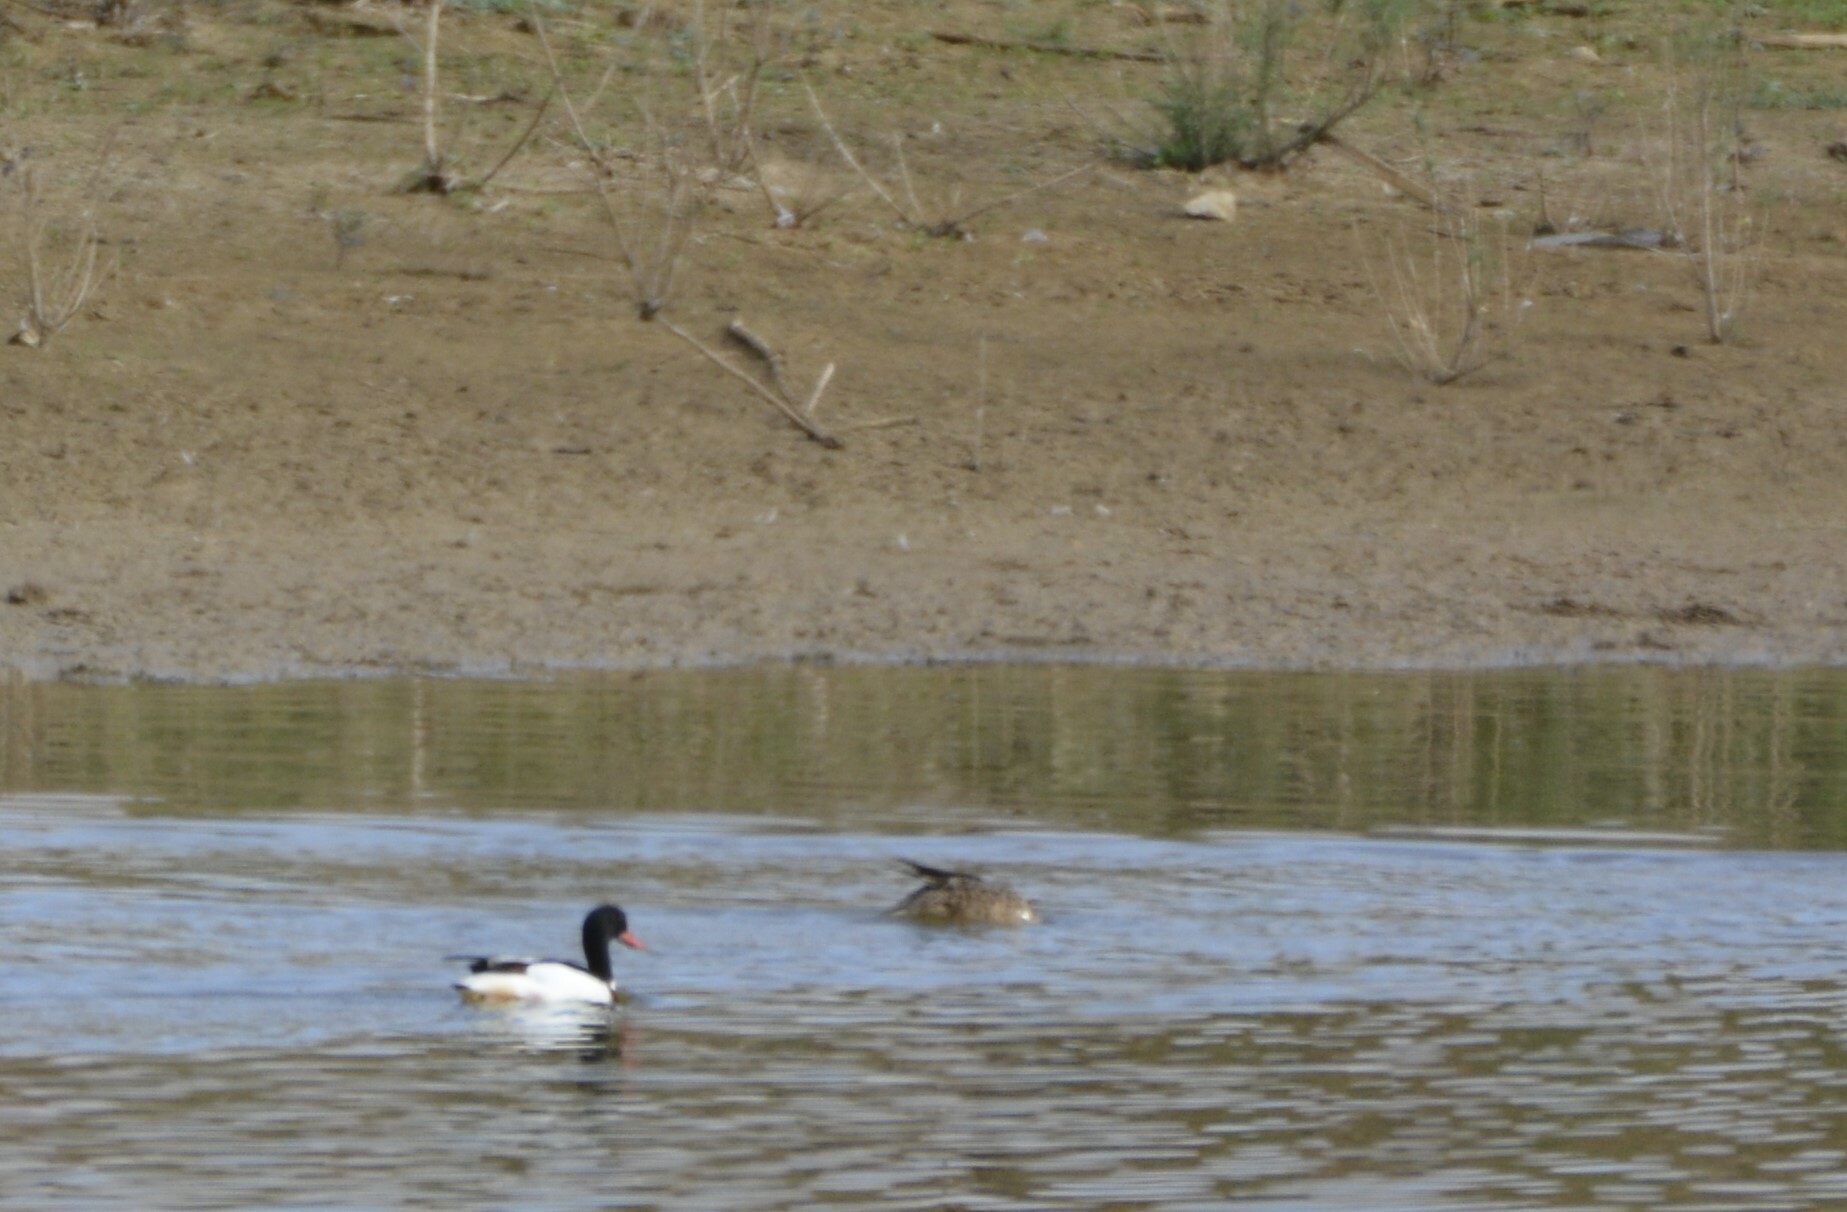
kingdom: Animalia
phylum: Chordata
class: Aves
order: Anseriformes
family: Anatidae
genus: Tadorna
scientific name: Tadorna tadorna
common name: Common shelduck
